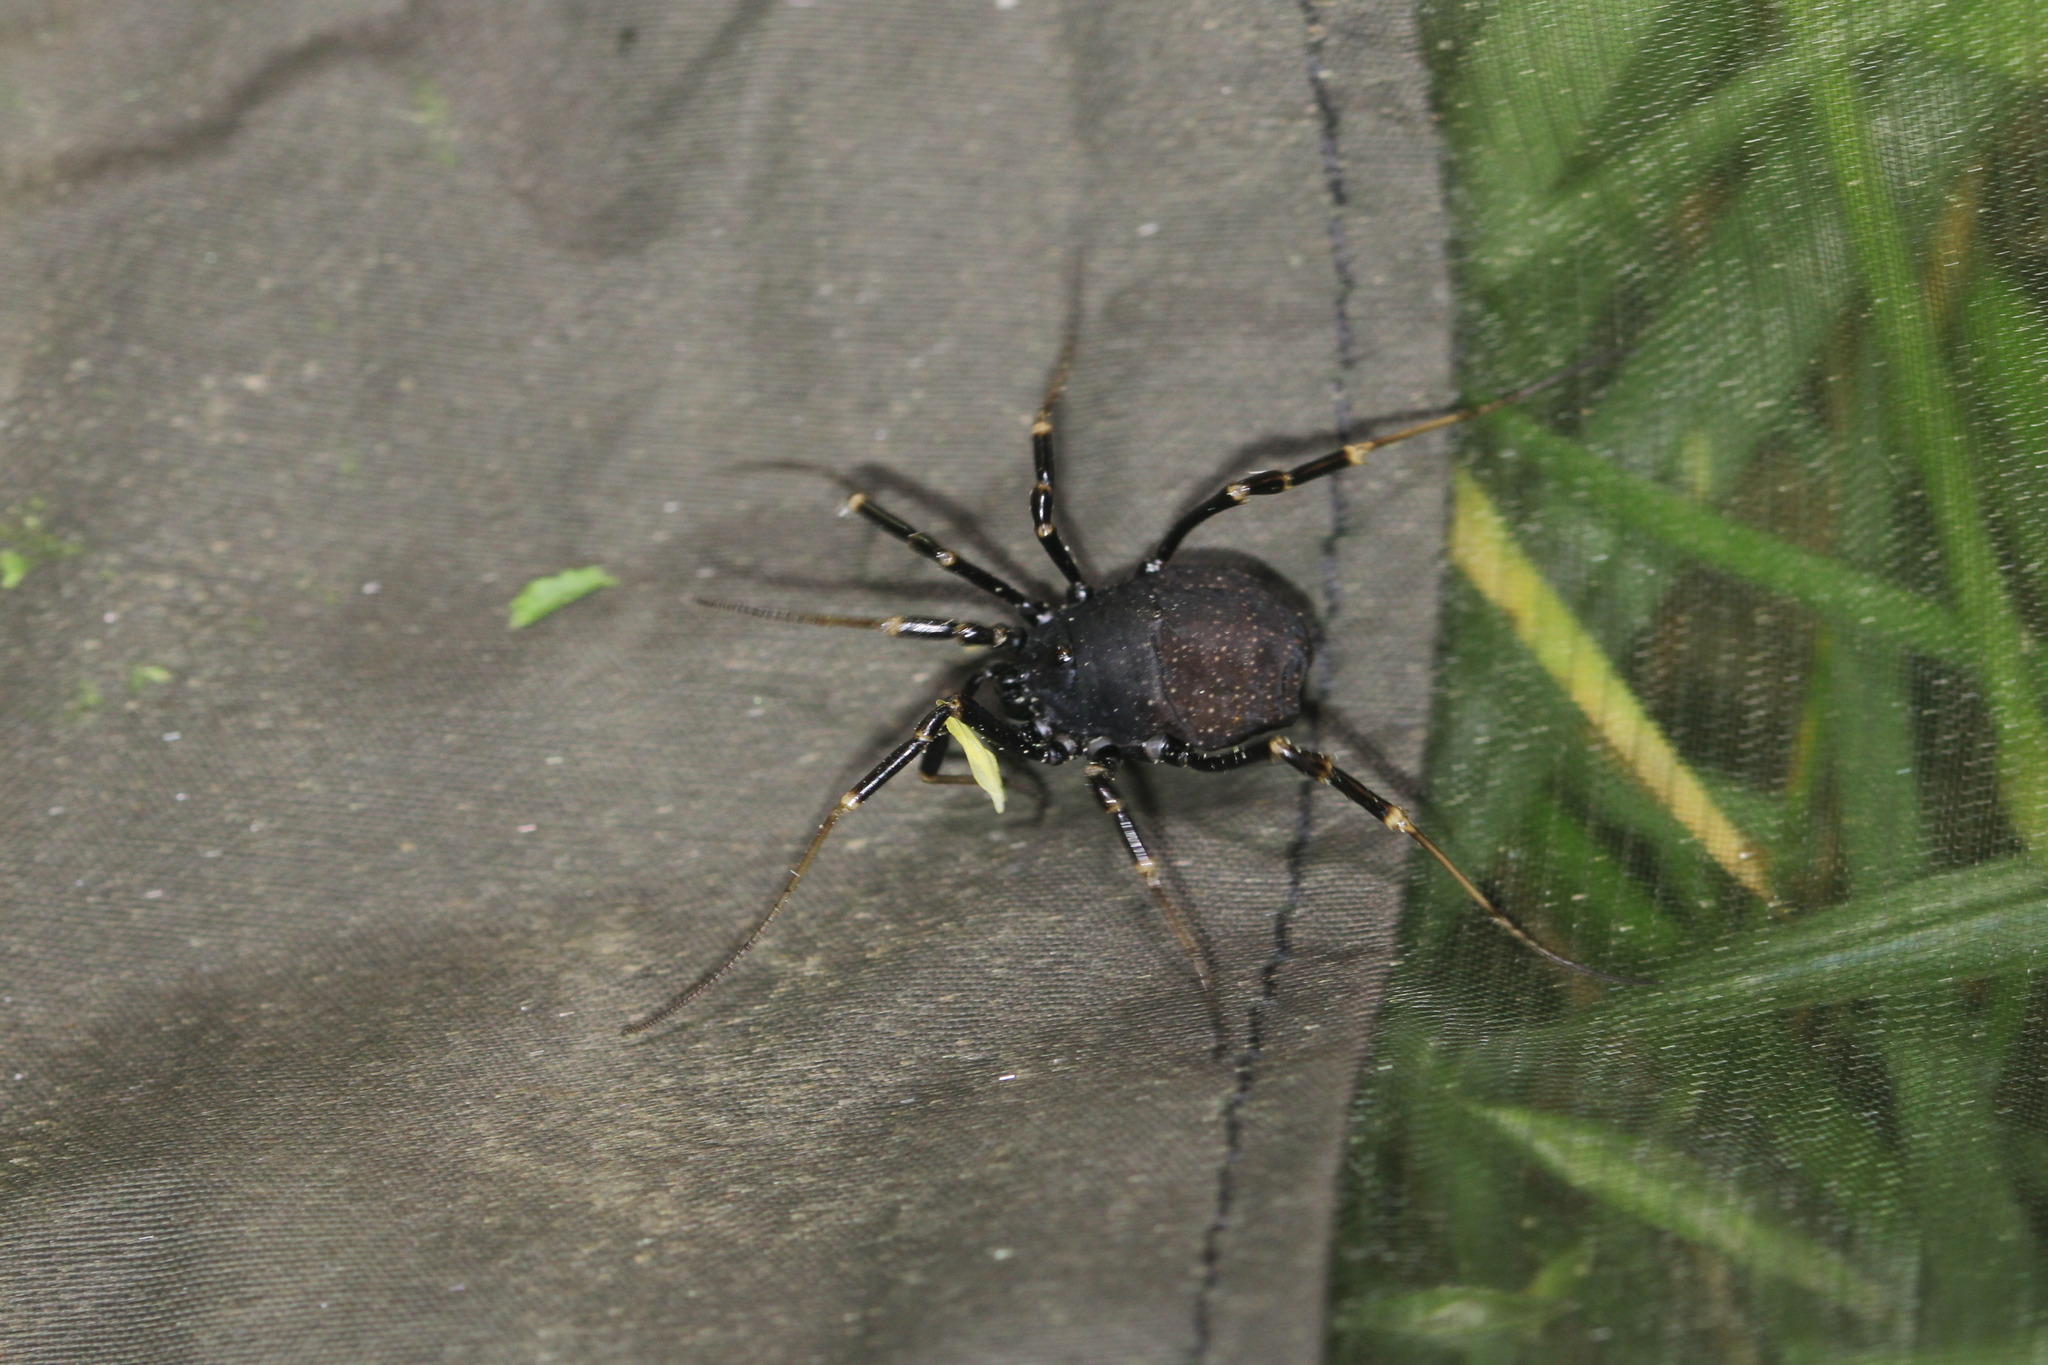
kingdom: Animalia
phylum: Arthropoda
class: Arachnida
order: Opiliones
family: Phalangiidae
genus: Egaenus
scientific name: Egaenus convexus
